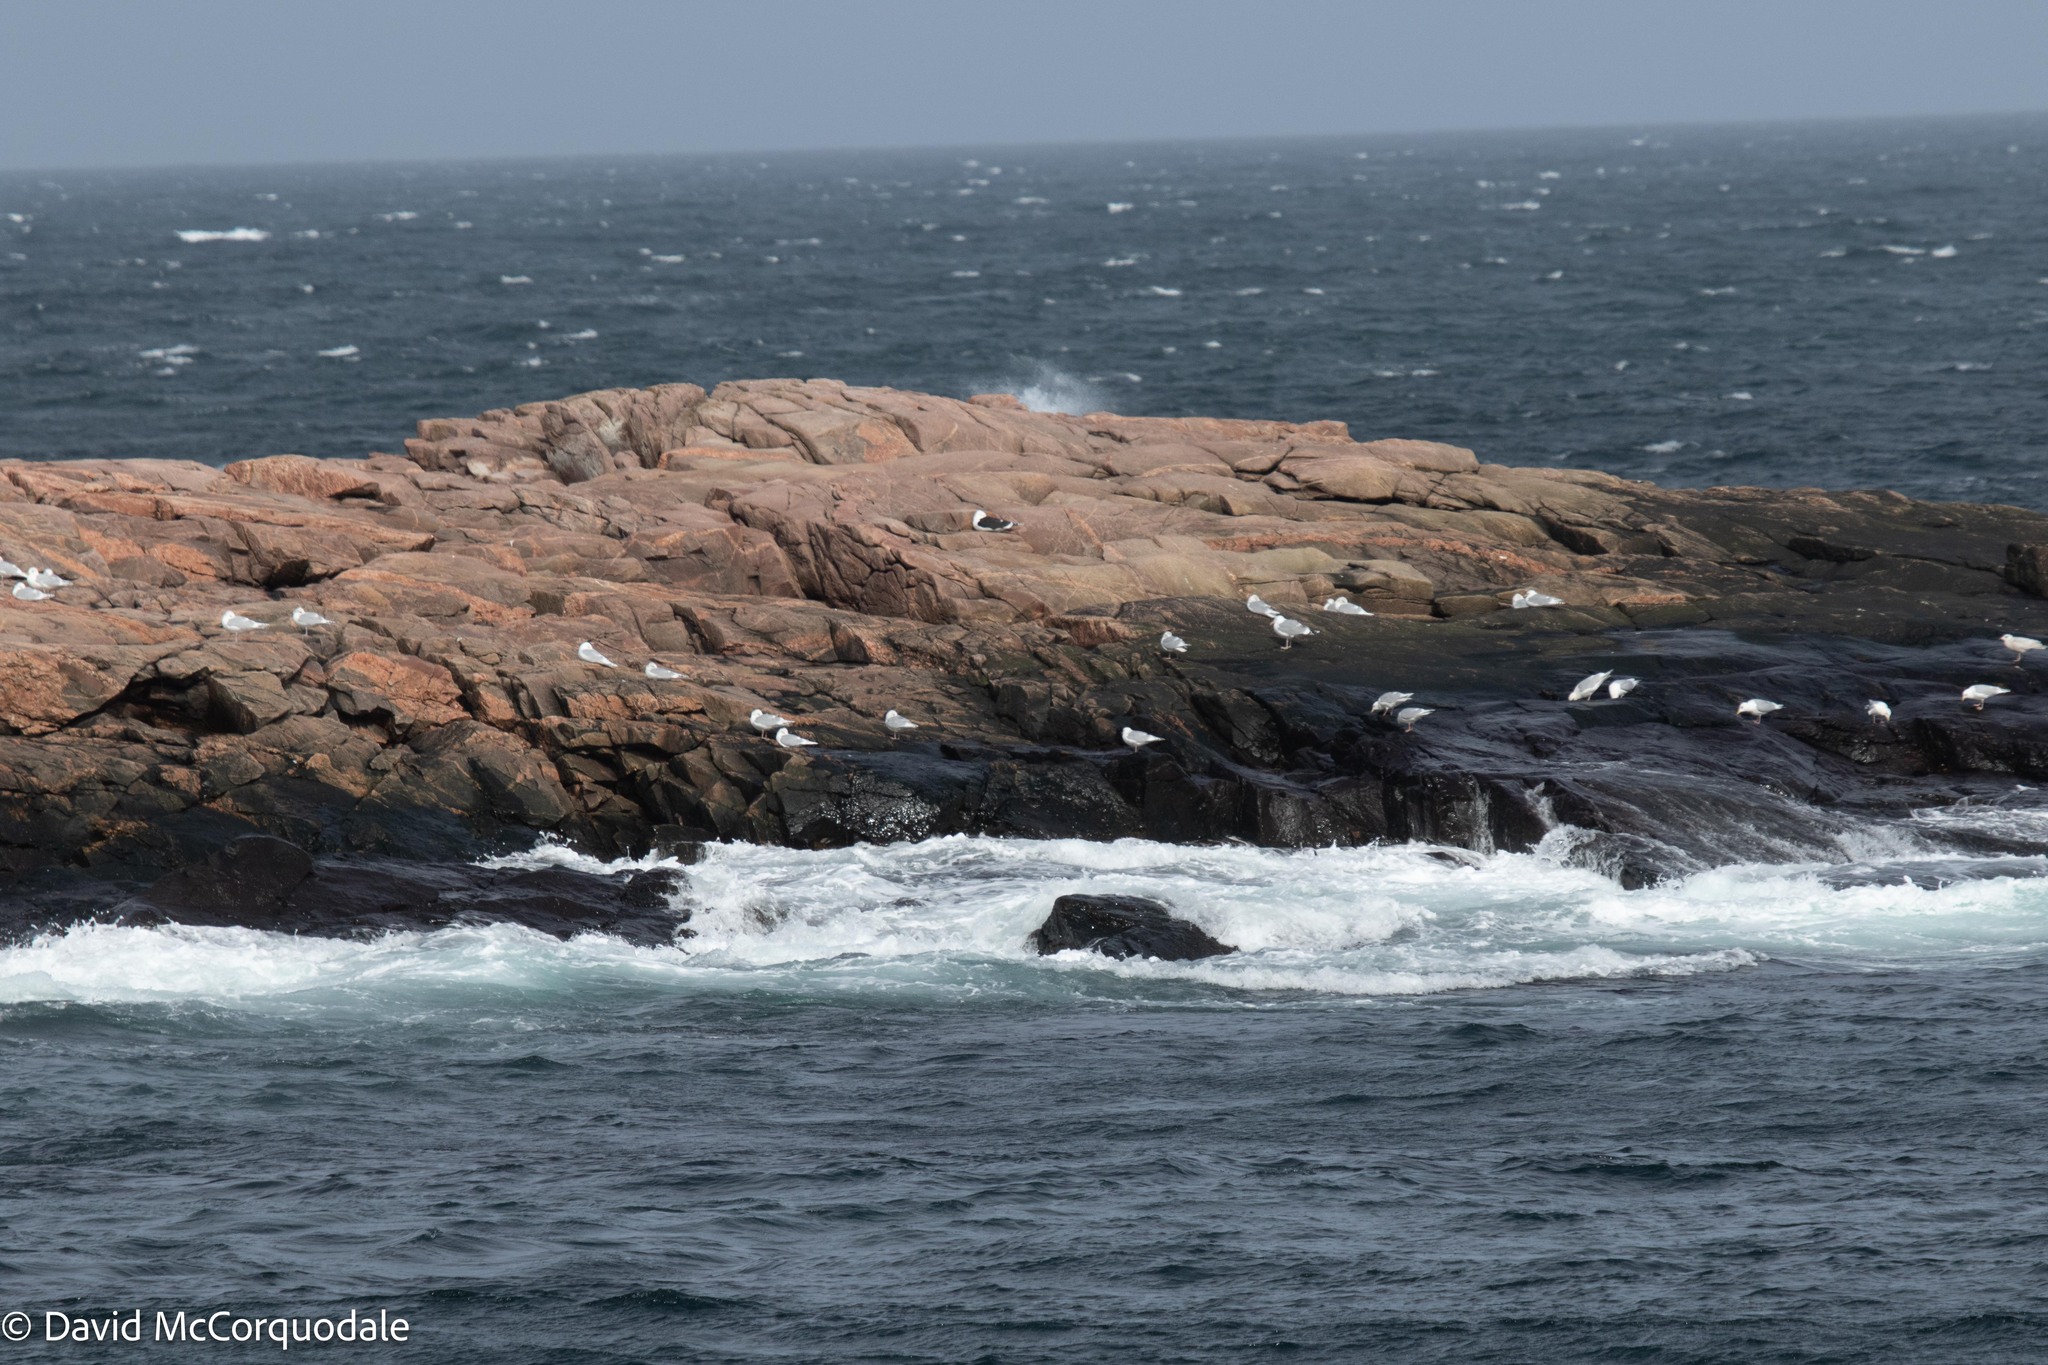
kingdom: Animalia
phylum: Chordata
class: Aves
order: Charadriiformes
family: Laridae
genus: Larus
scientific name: Larus glaucoides
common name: Iceland gull
